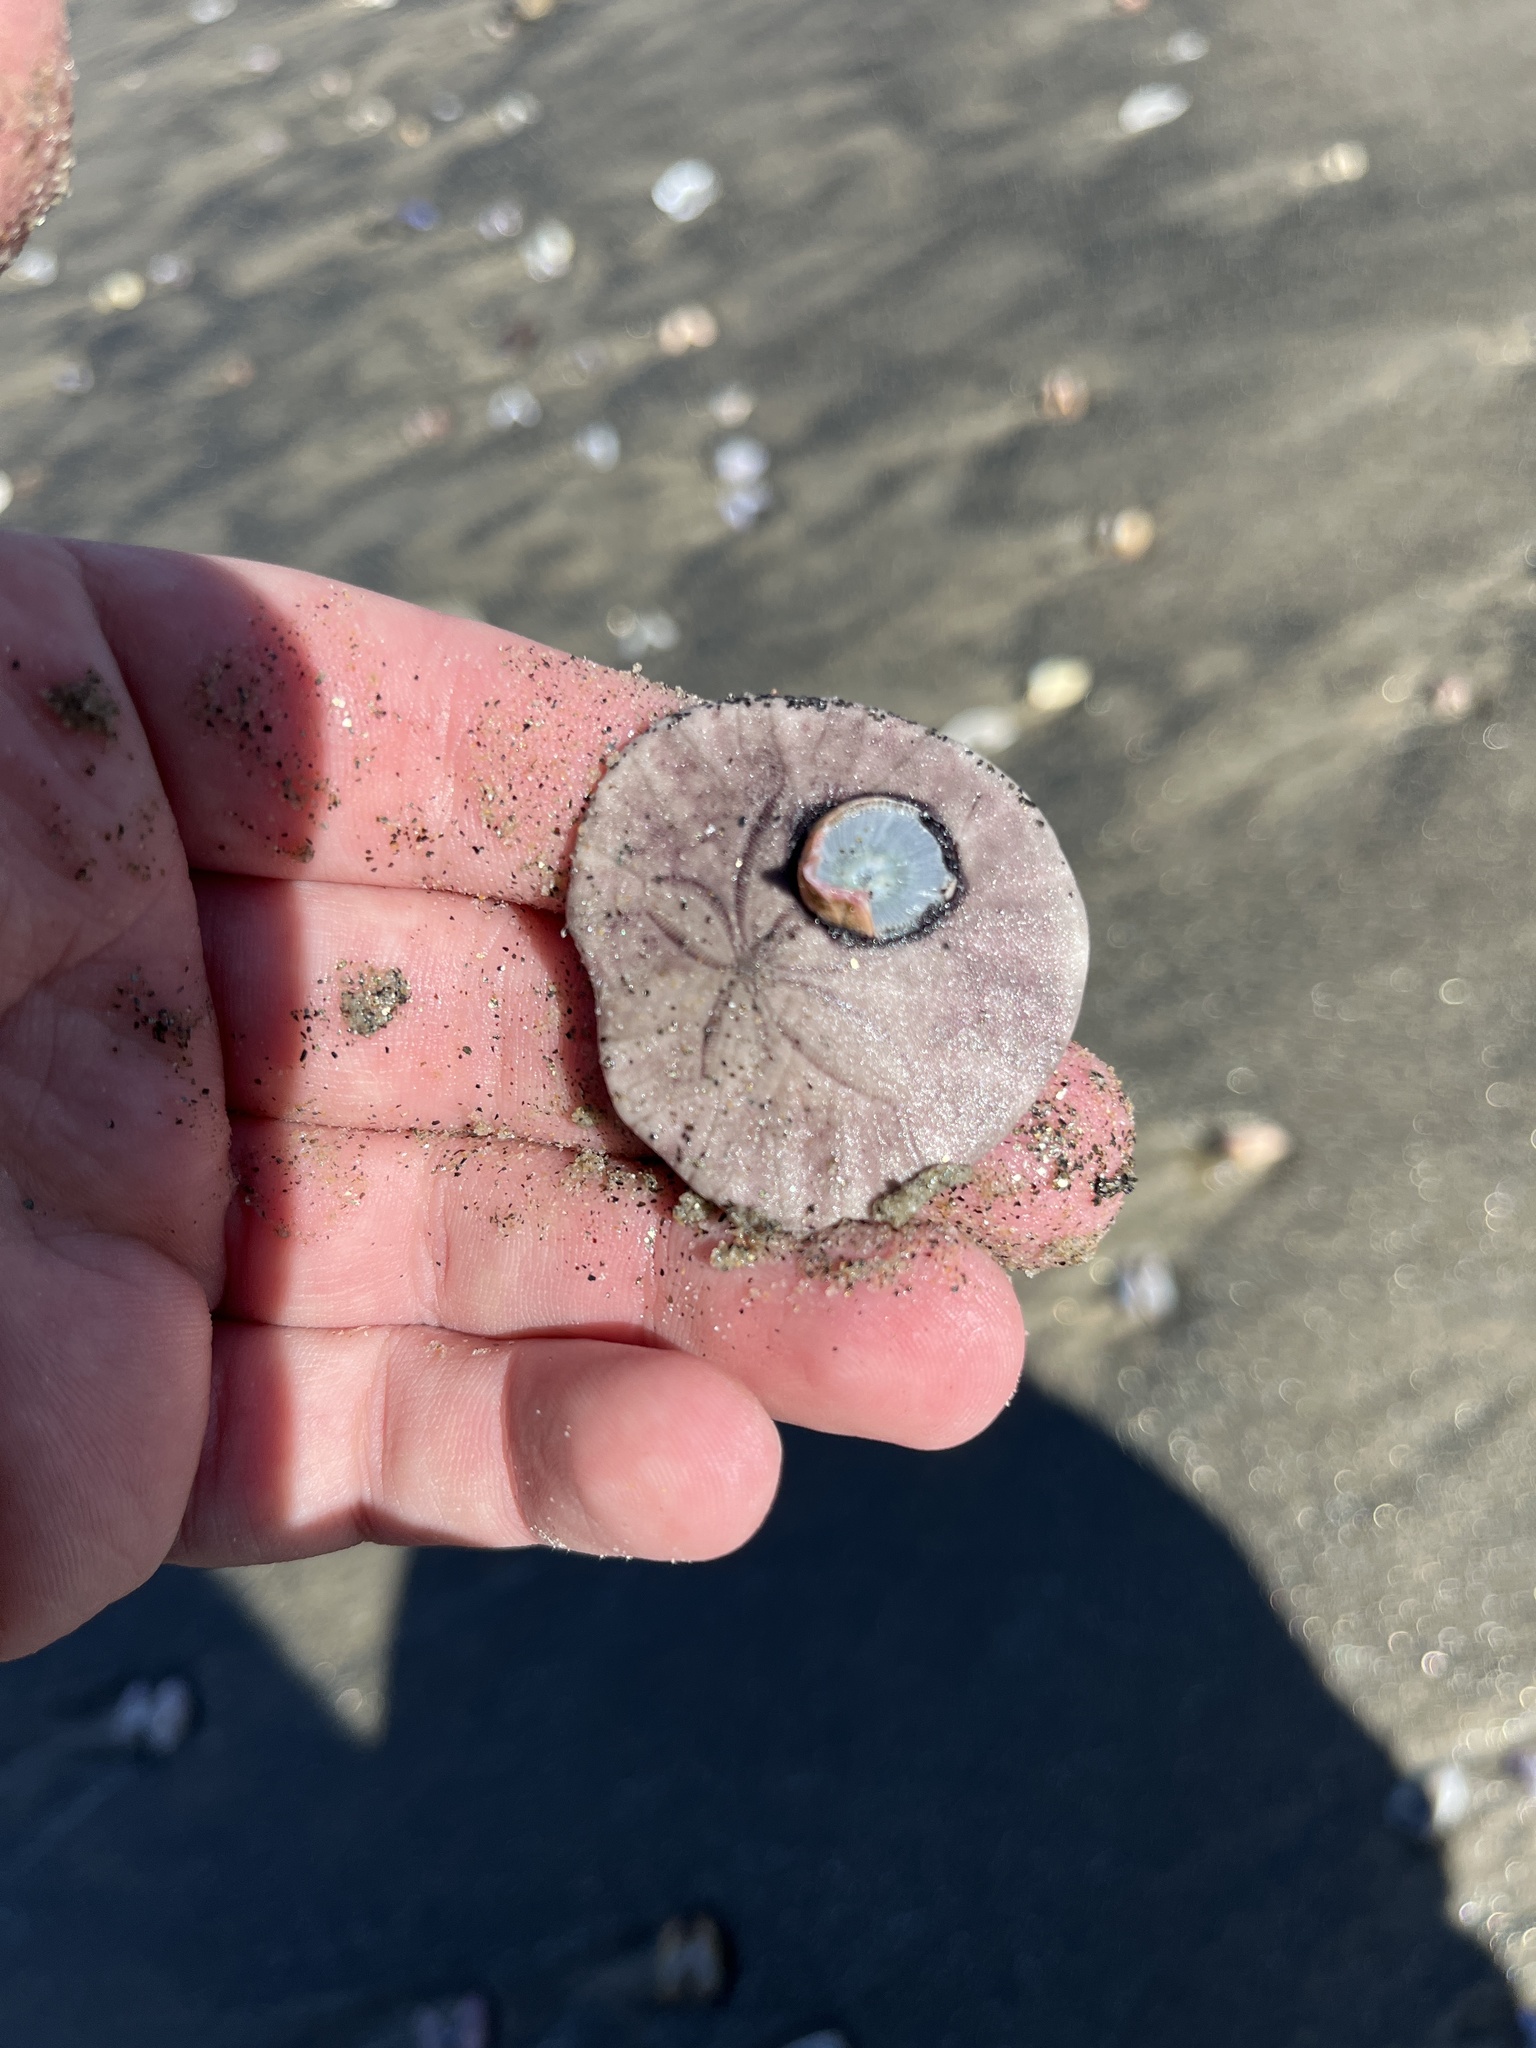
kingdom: Animalia
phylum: Echinodermata
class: Echinoidea
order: Echinolampadacea
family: Dendrasteridae
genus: Dendraster
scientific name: Dendraster excentricus
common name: Eccentric sand dollar sea urchin
